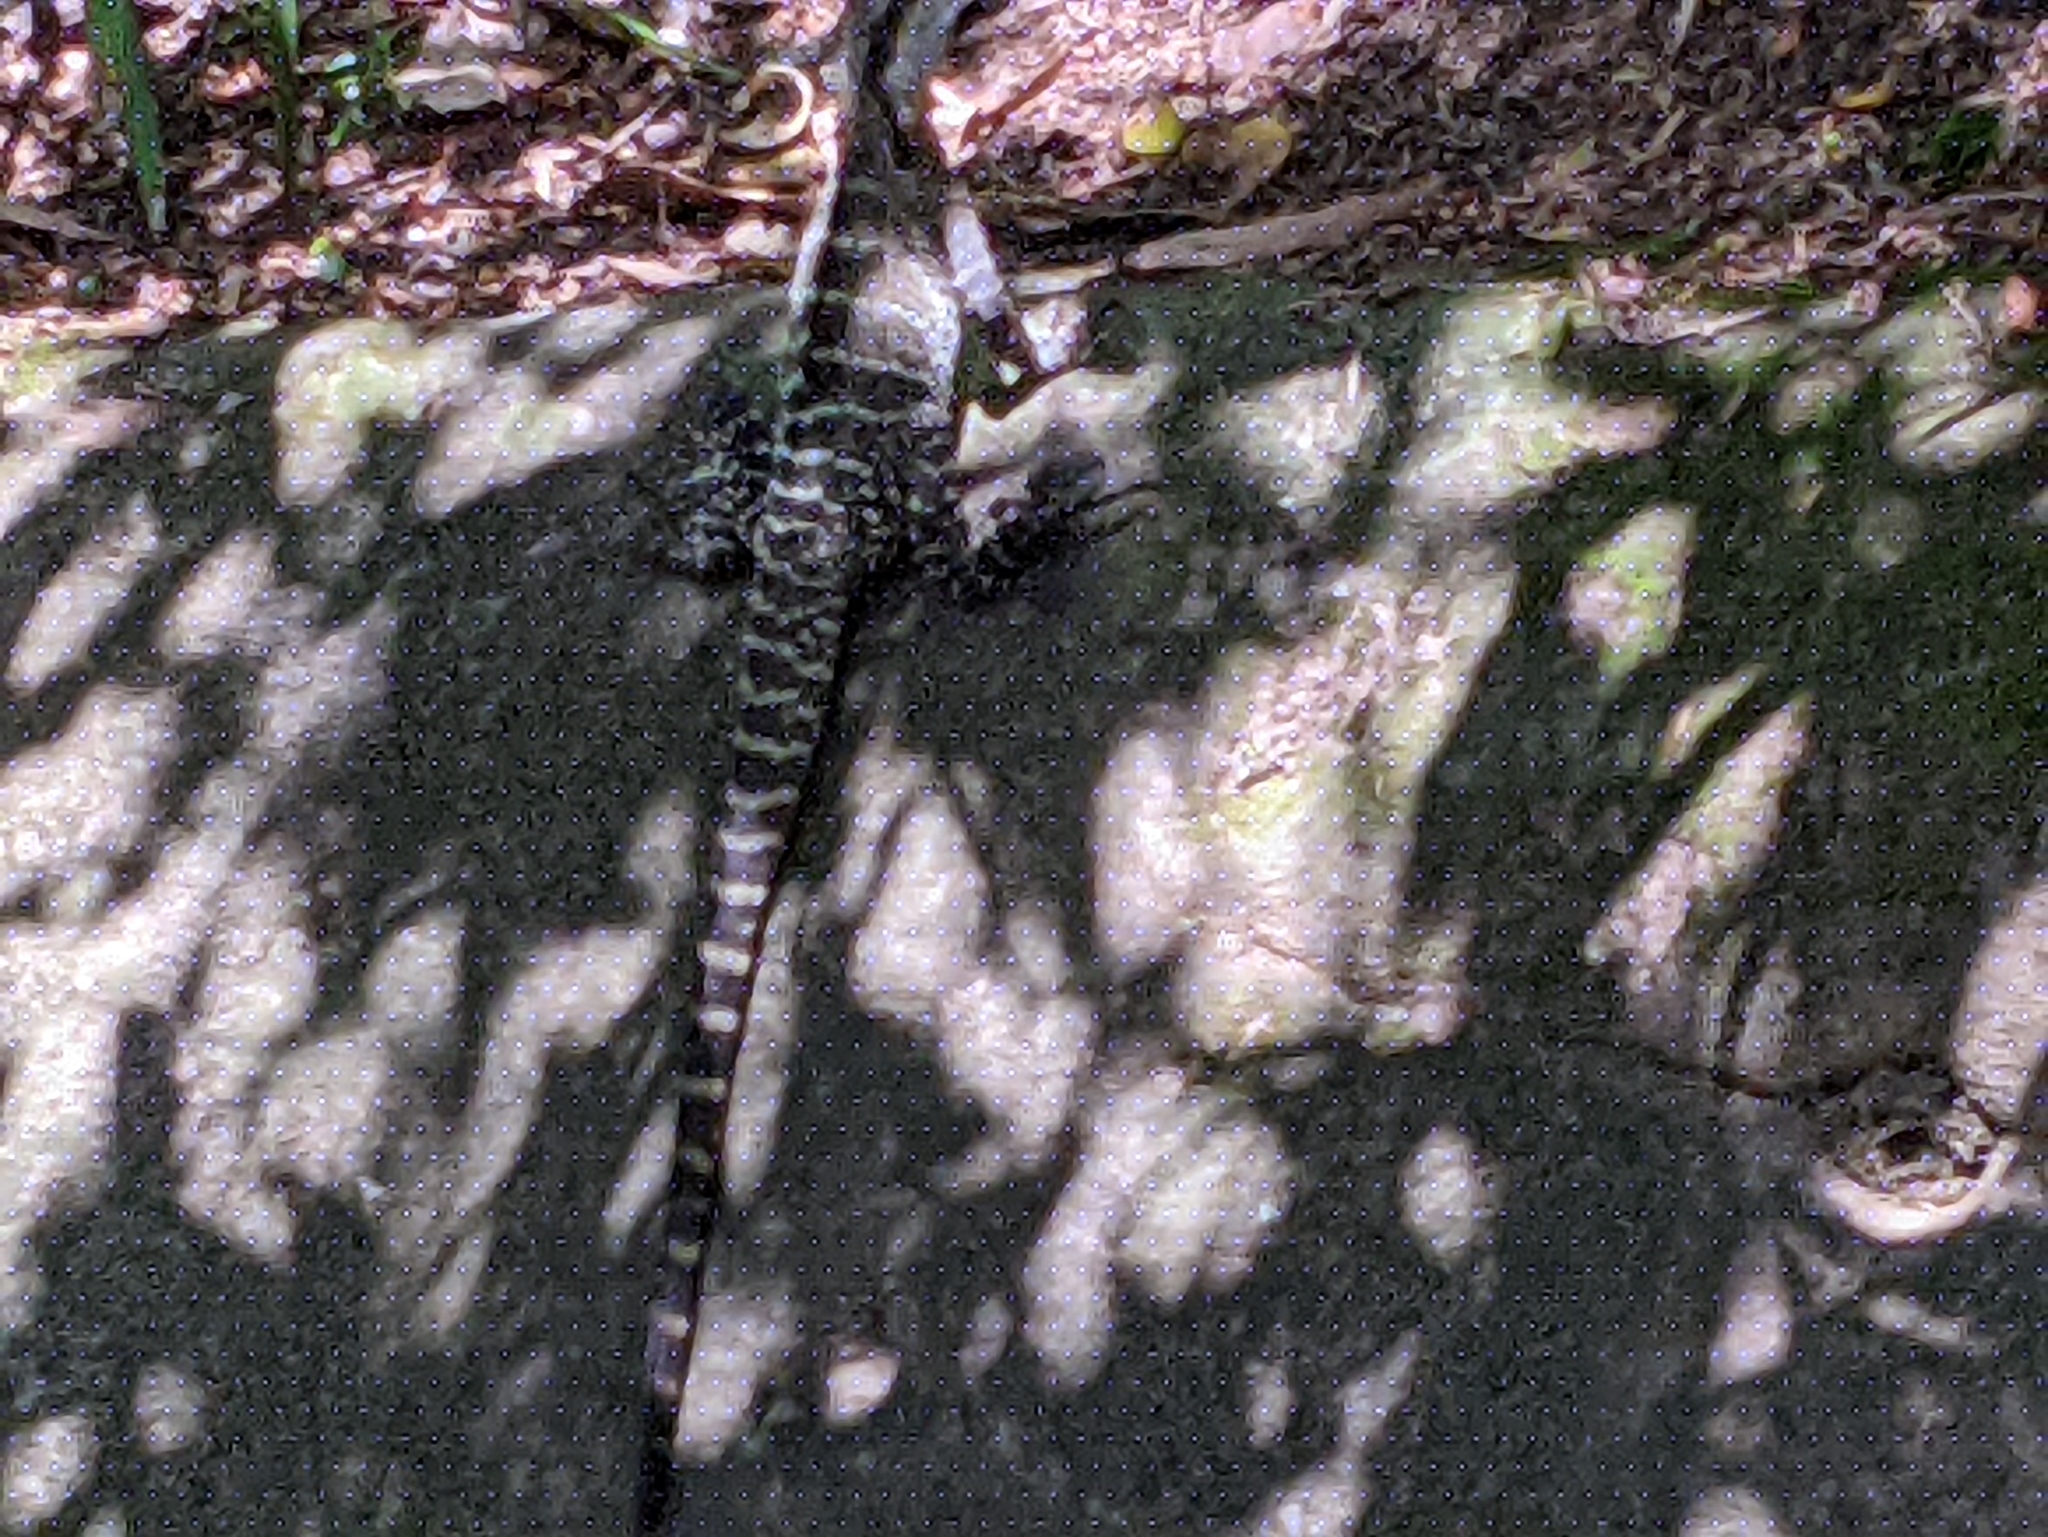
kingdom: Animalia
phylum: Chordata
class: Squamata
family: Agamidae
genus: Intellagama
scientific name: Intellagama lesueurii
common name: Eastern water dragon
